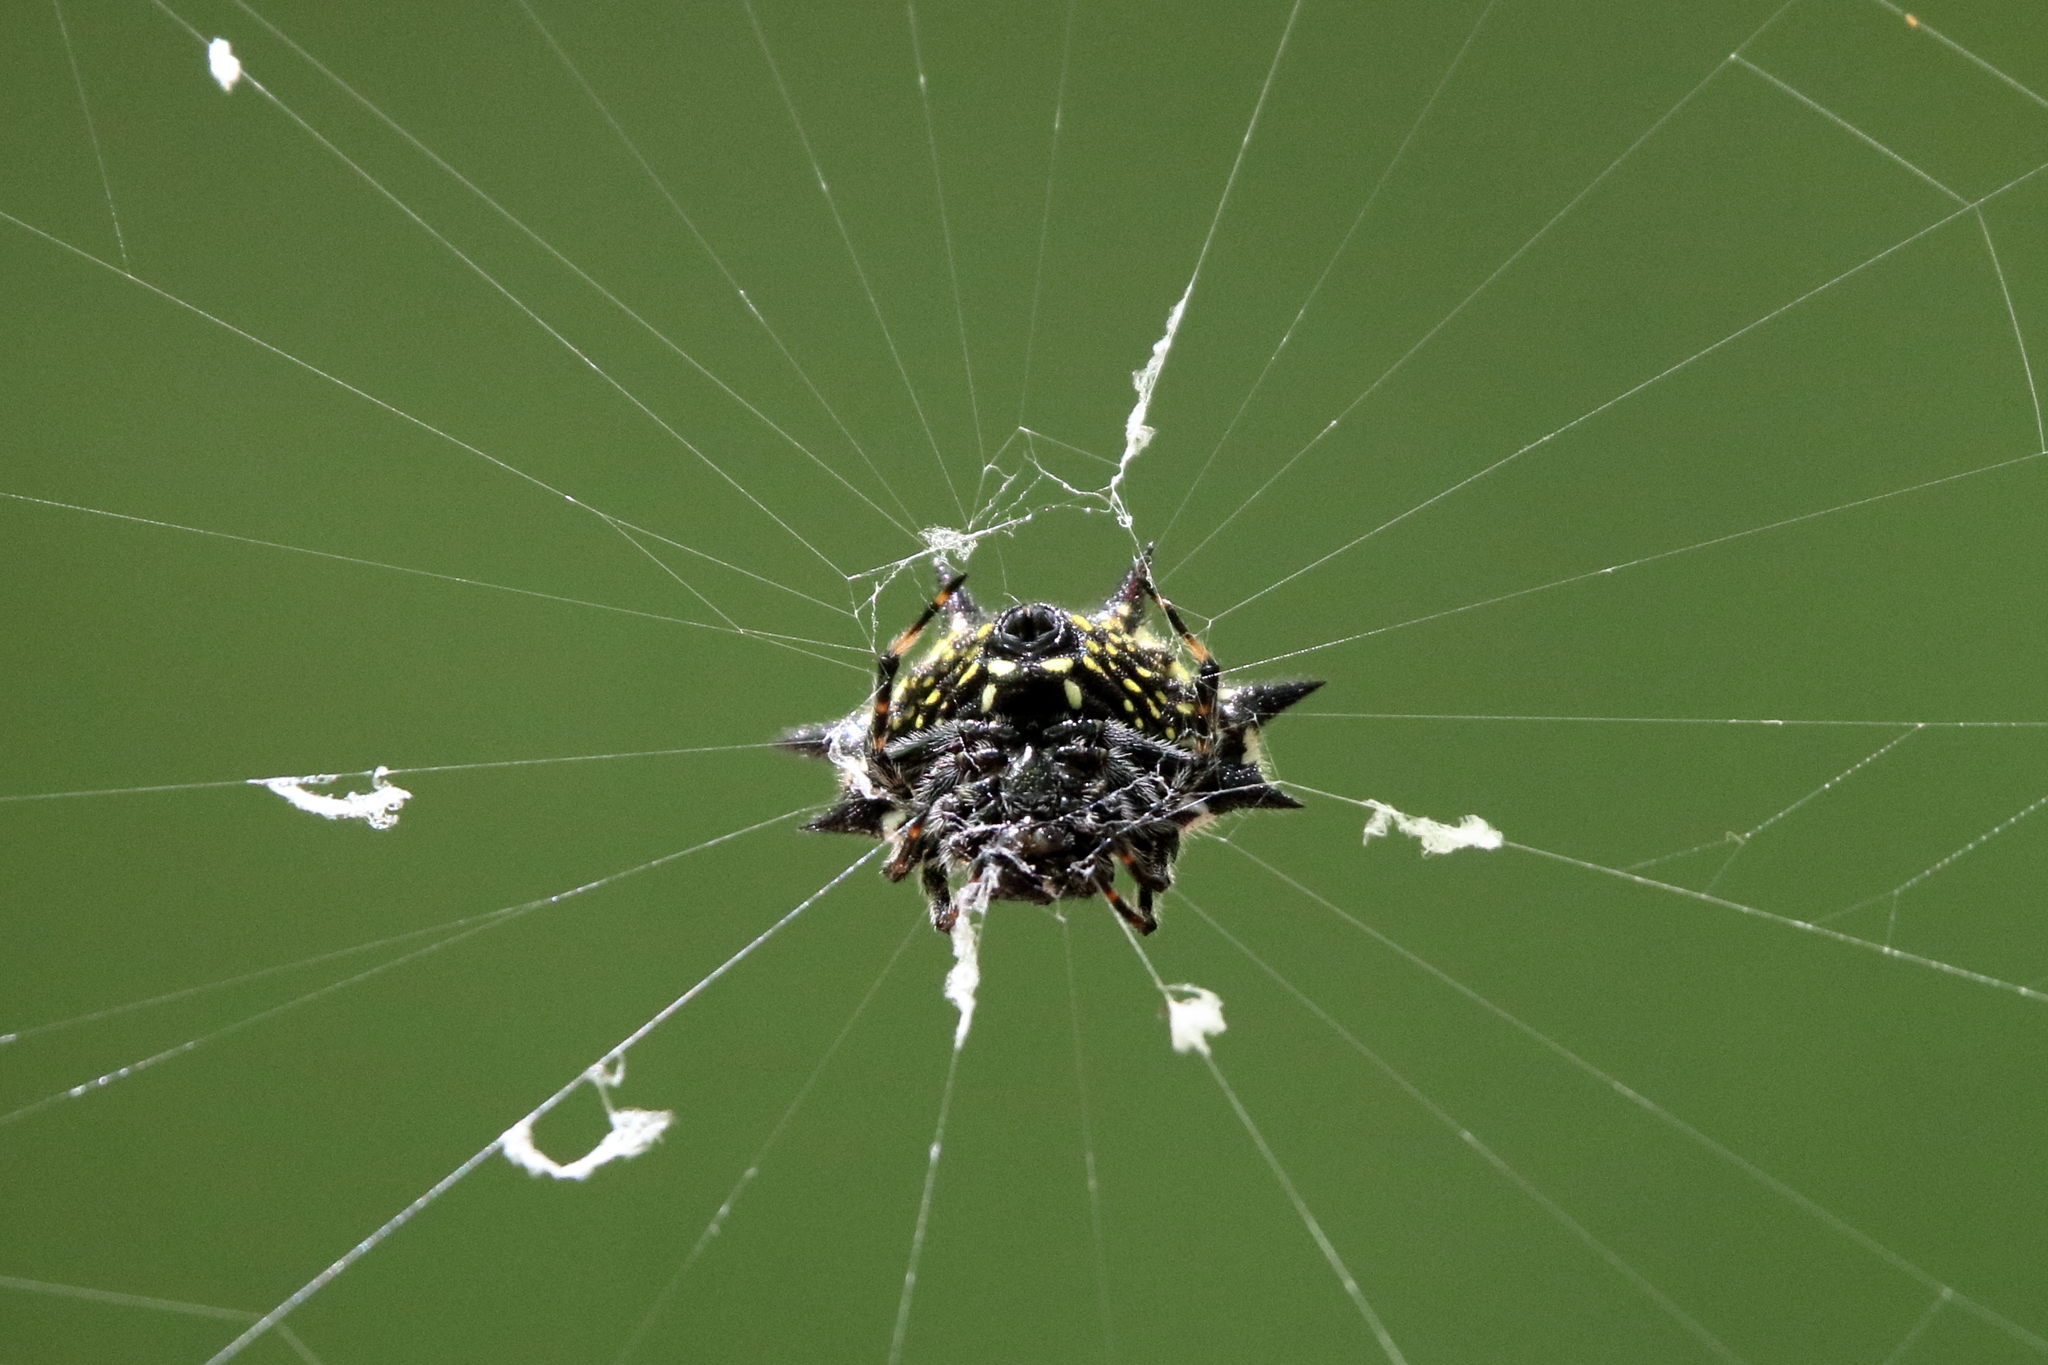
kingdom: Animalia
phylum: Arthropoda
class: Arachnida
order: Araneae
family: Araneidae
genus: Gasteracantha
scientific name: Gasteracantha cancriformis
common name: Orb weavers
